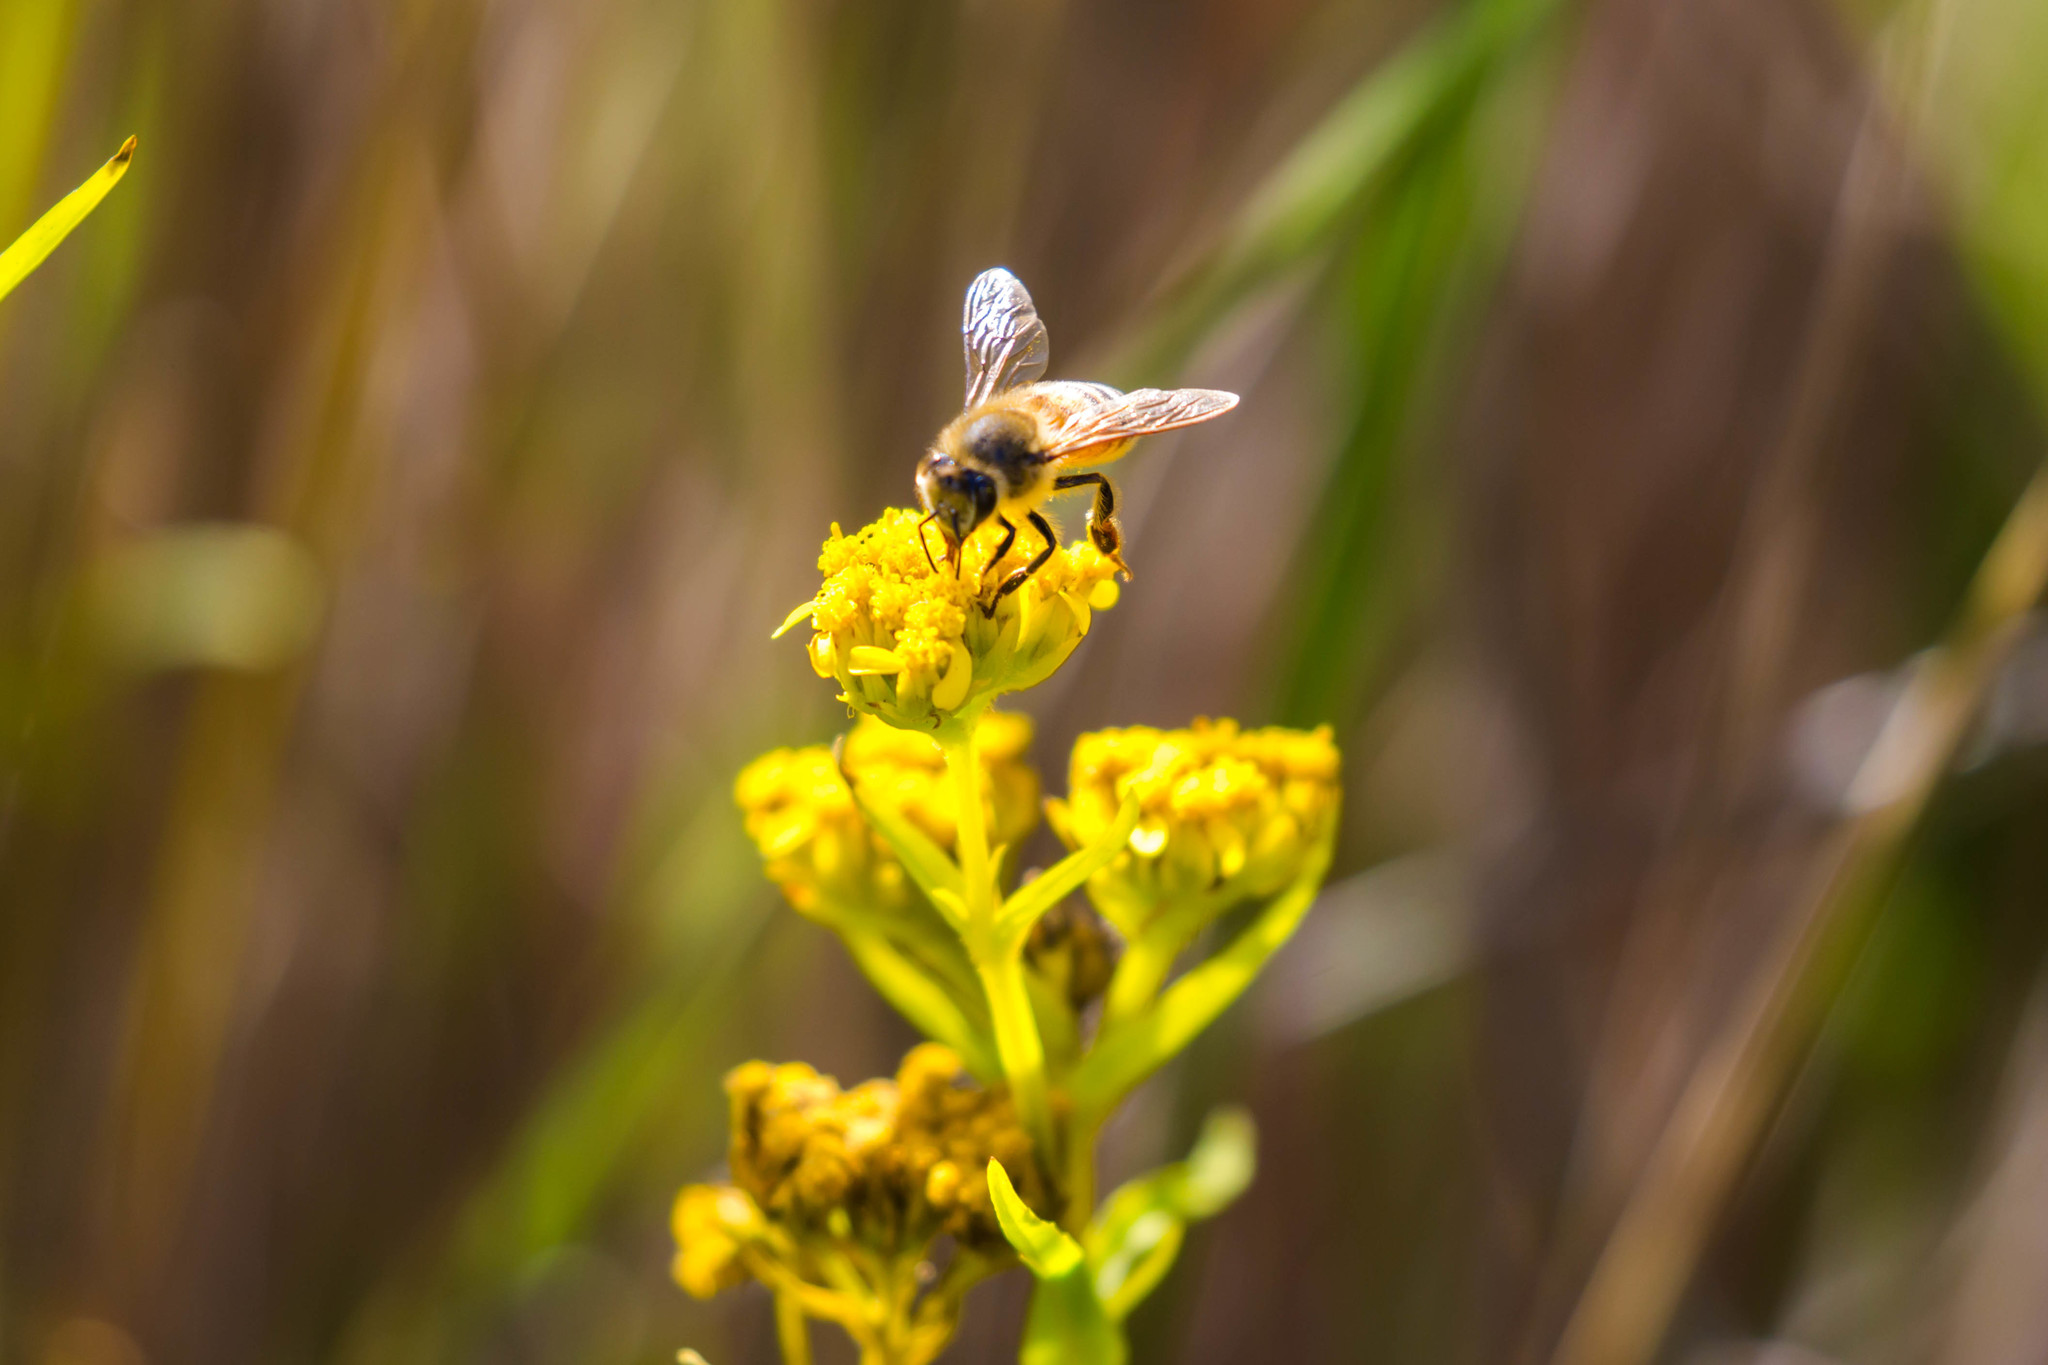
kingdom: Animalia
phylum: Arthropoda
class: Insecta
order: Hymenoptera
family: Apidae
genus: Apis
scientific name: Apis mellifera
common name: Honey bee
